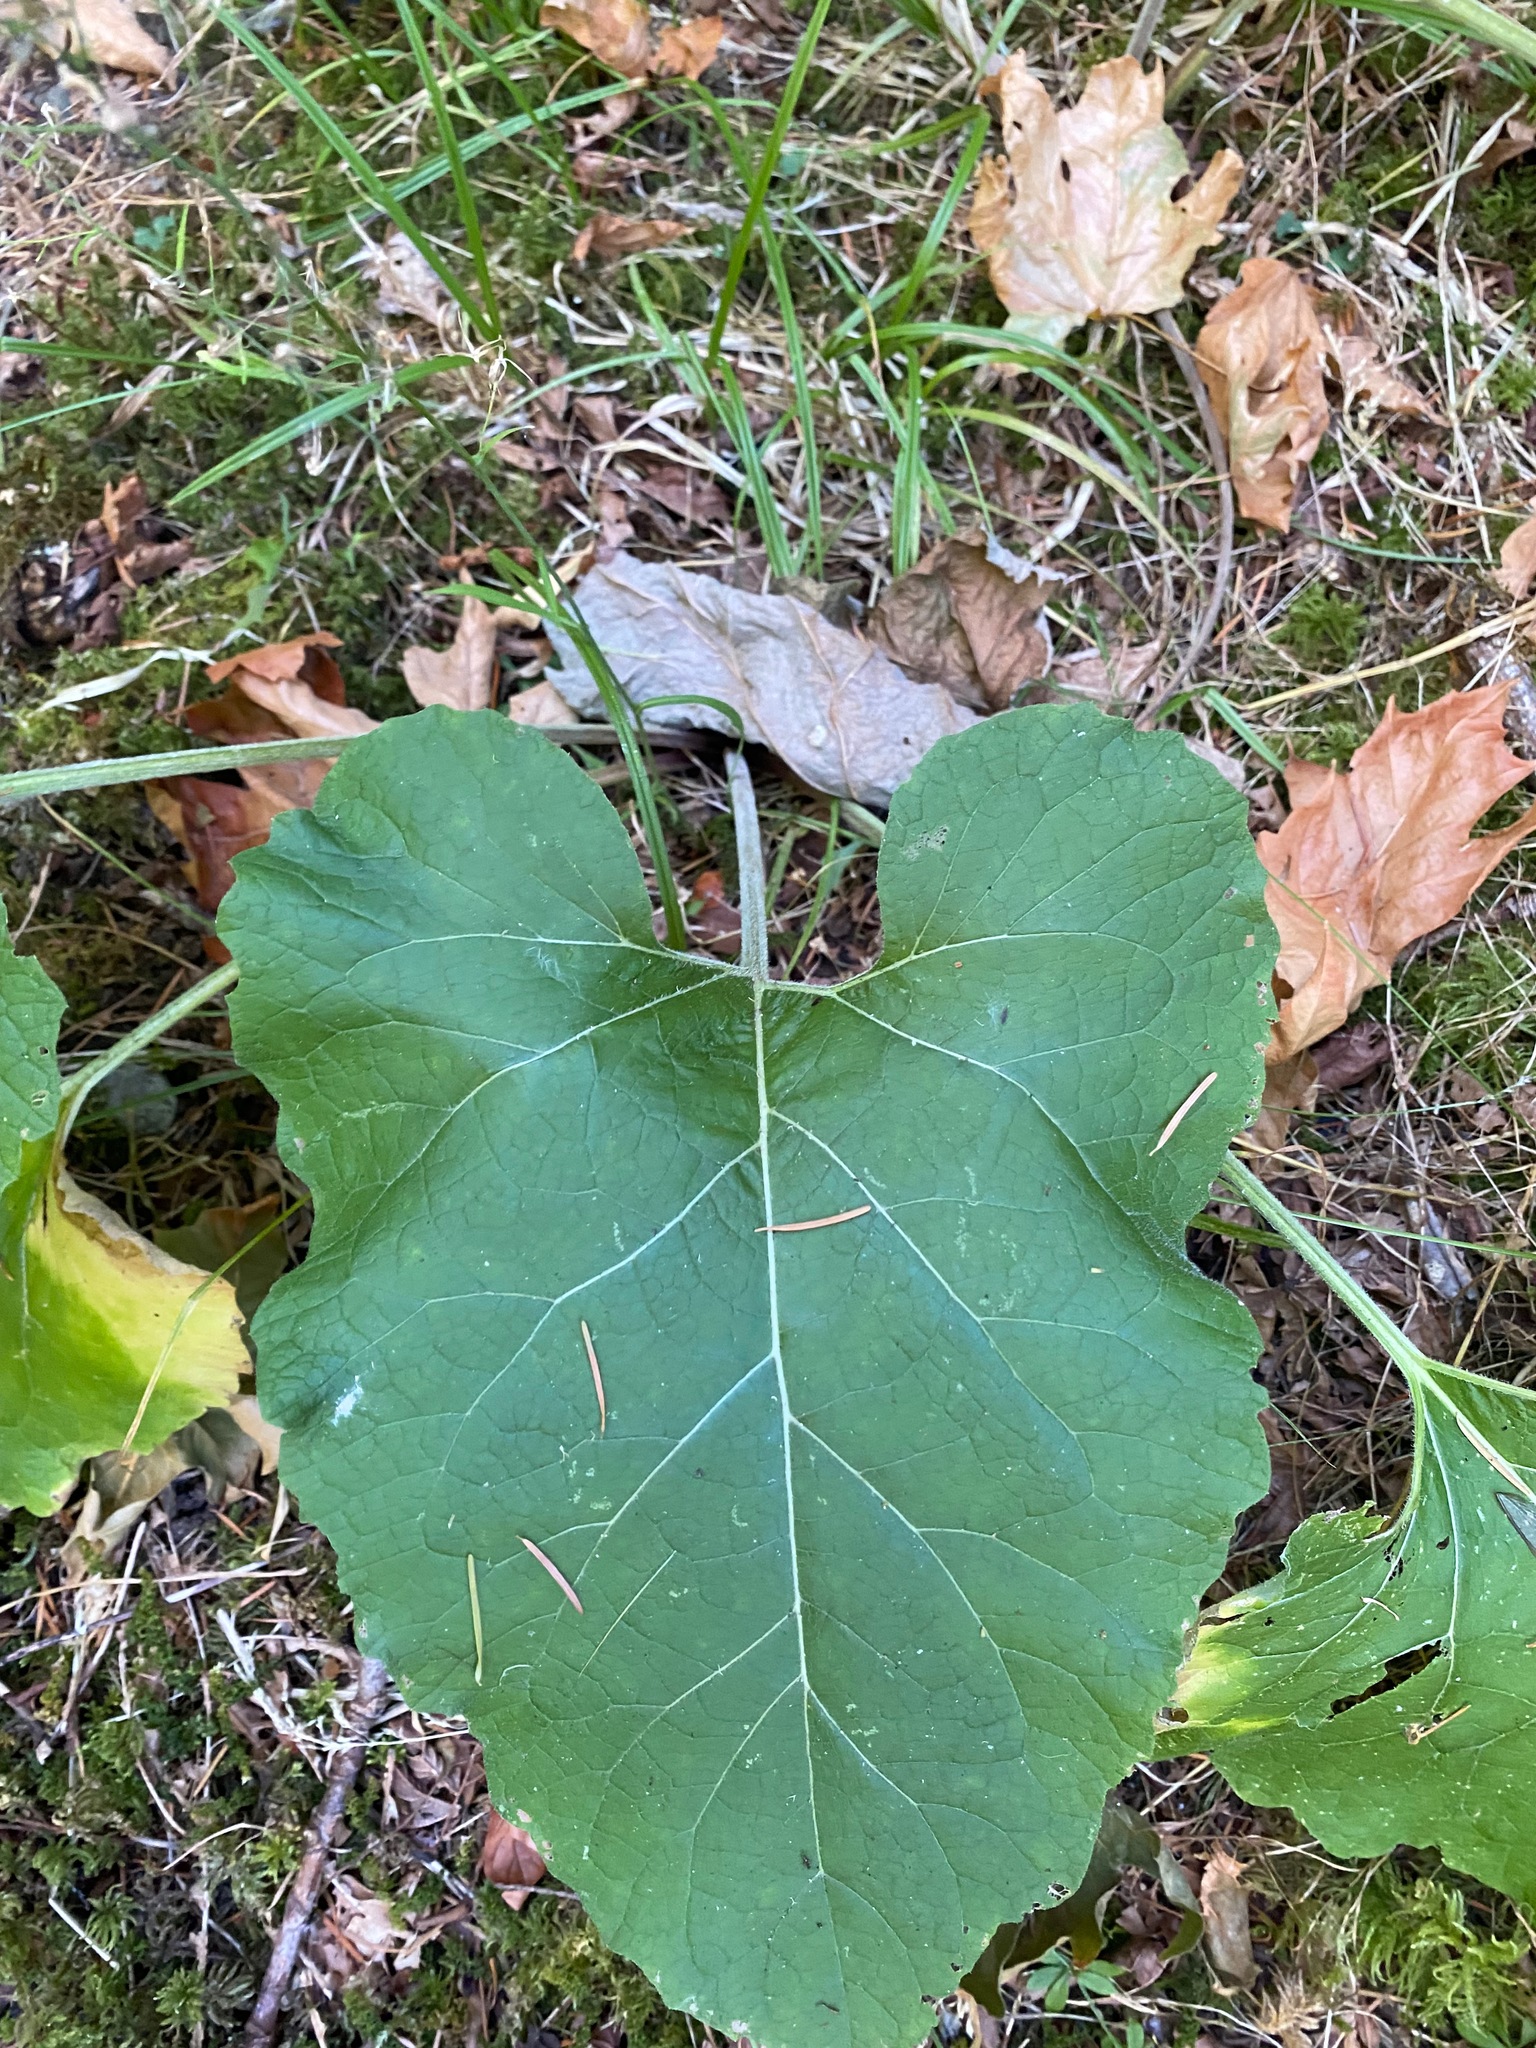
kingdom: Plantae
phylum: Tracheophyta
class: Magnoliopsida
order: Asterales
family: Asteraceae
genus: Arctium
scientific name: Arctium
